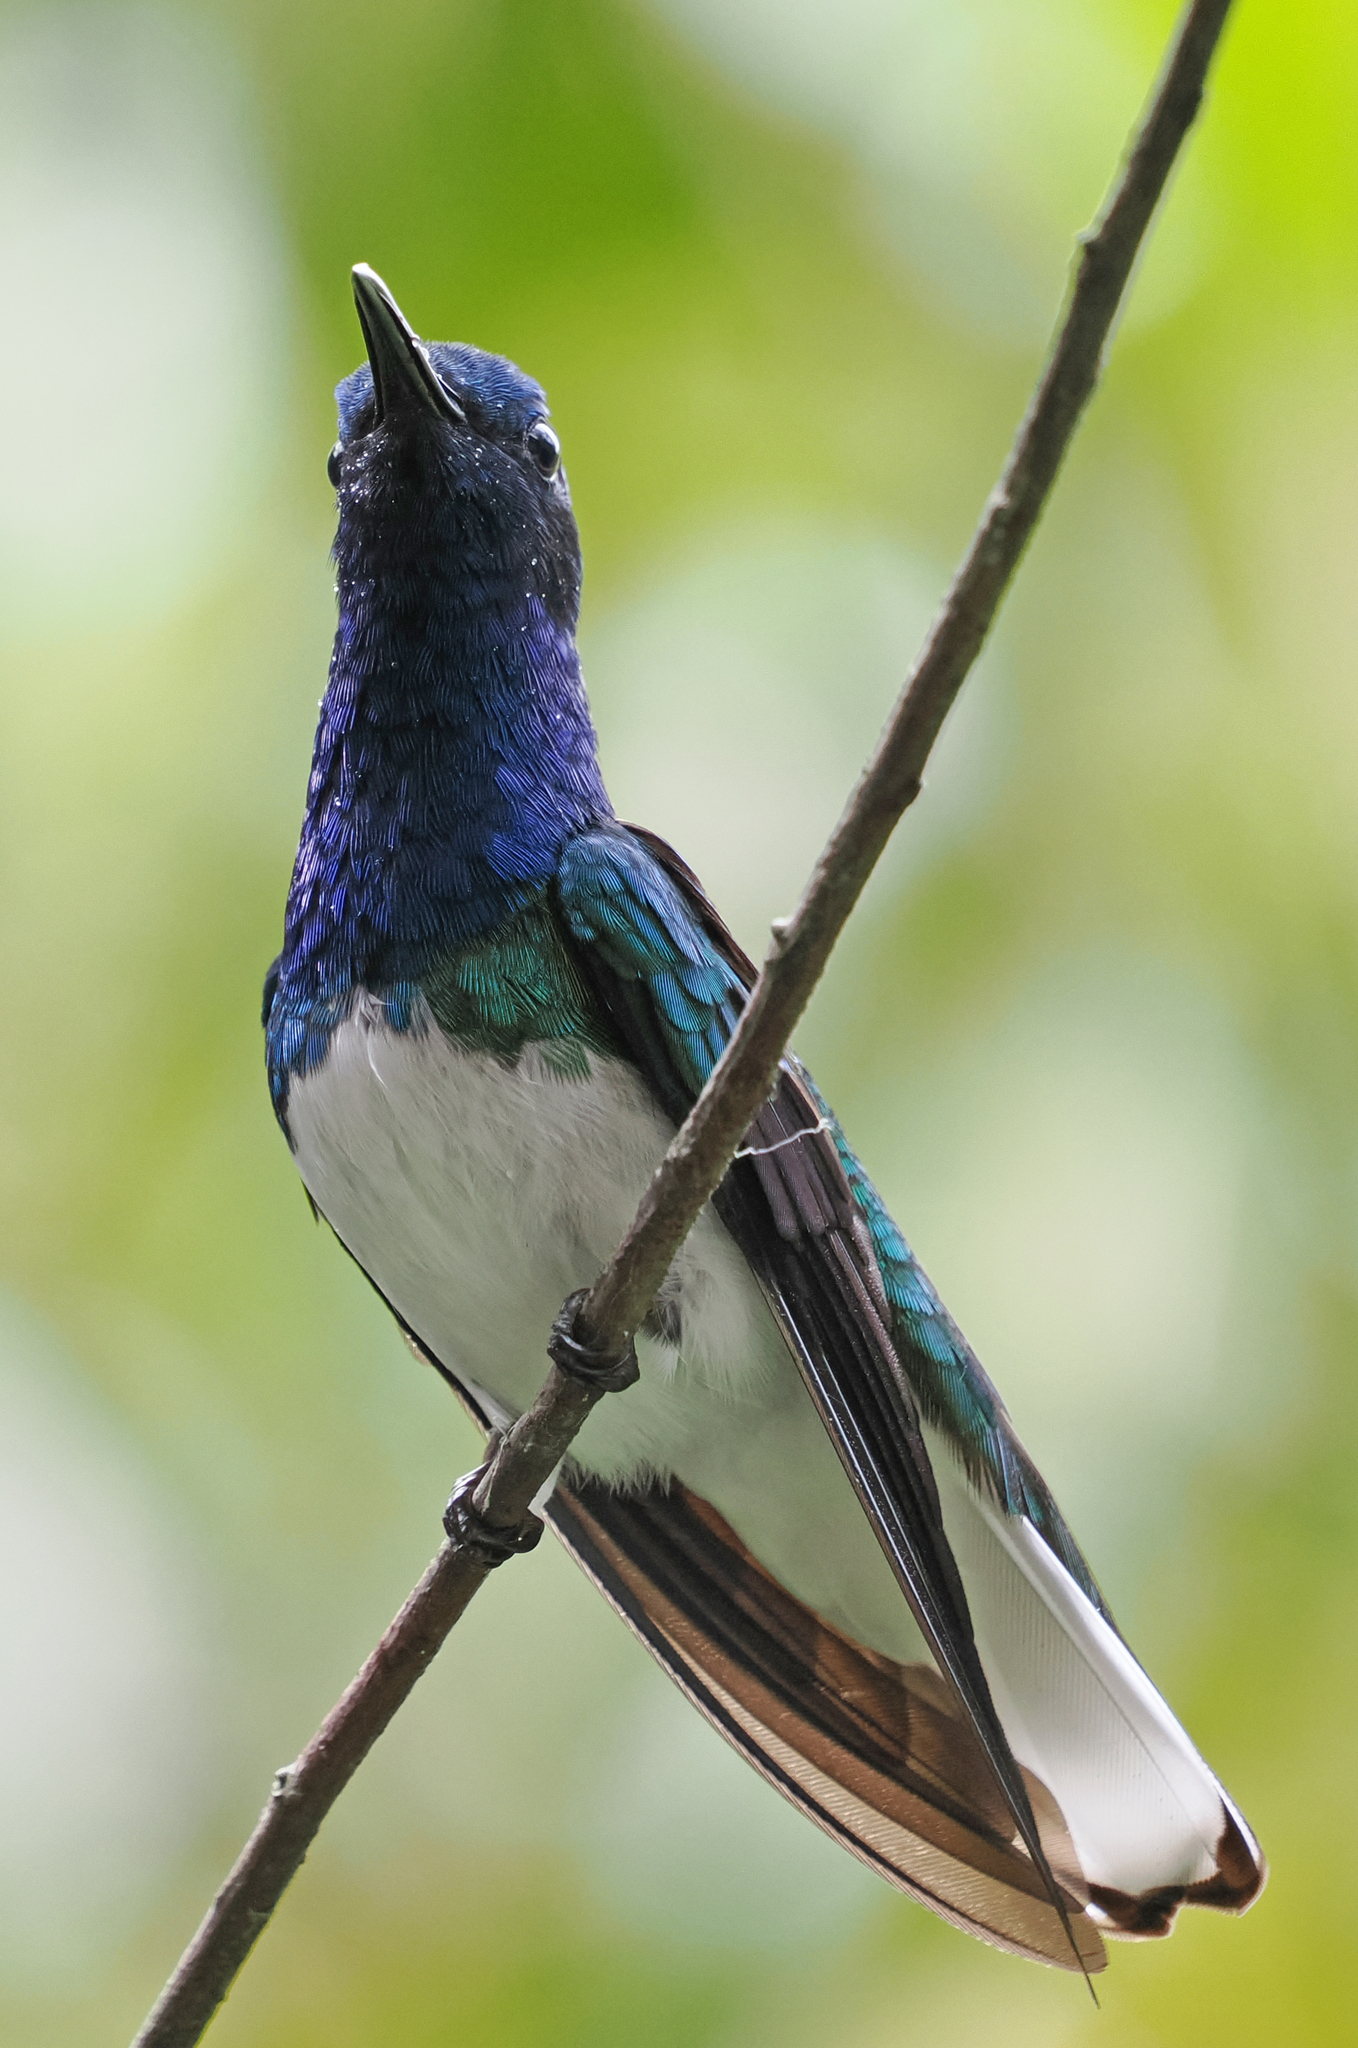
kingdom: Animalia
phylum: Chordata
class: Aves
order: Apodiformes
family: Trochilidae
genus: Florisuga
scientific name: Florisuga mellivora
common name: White-necked jacobin
